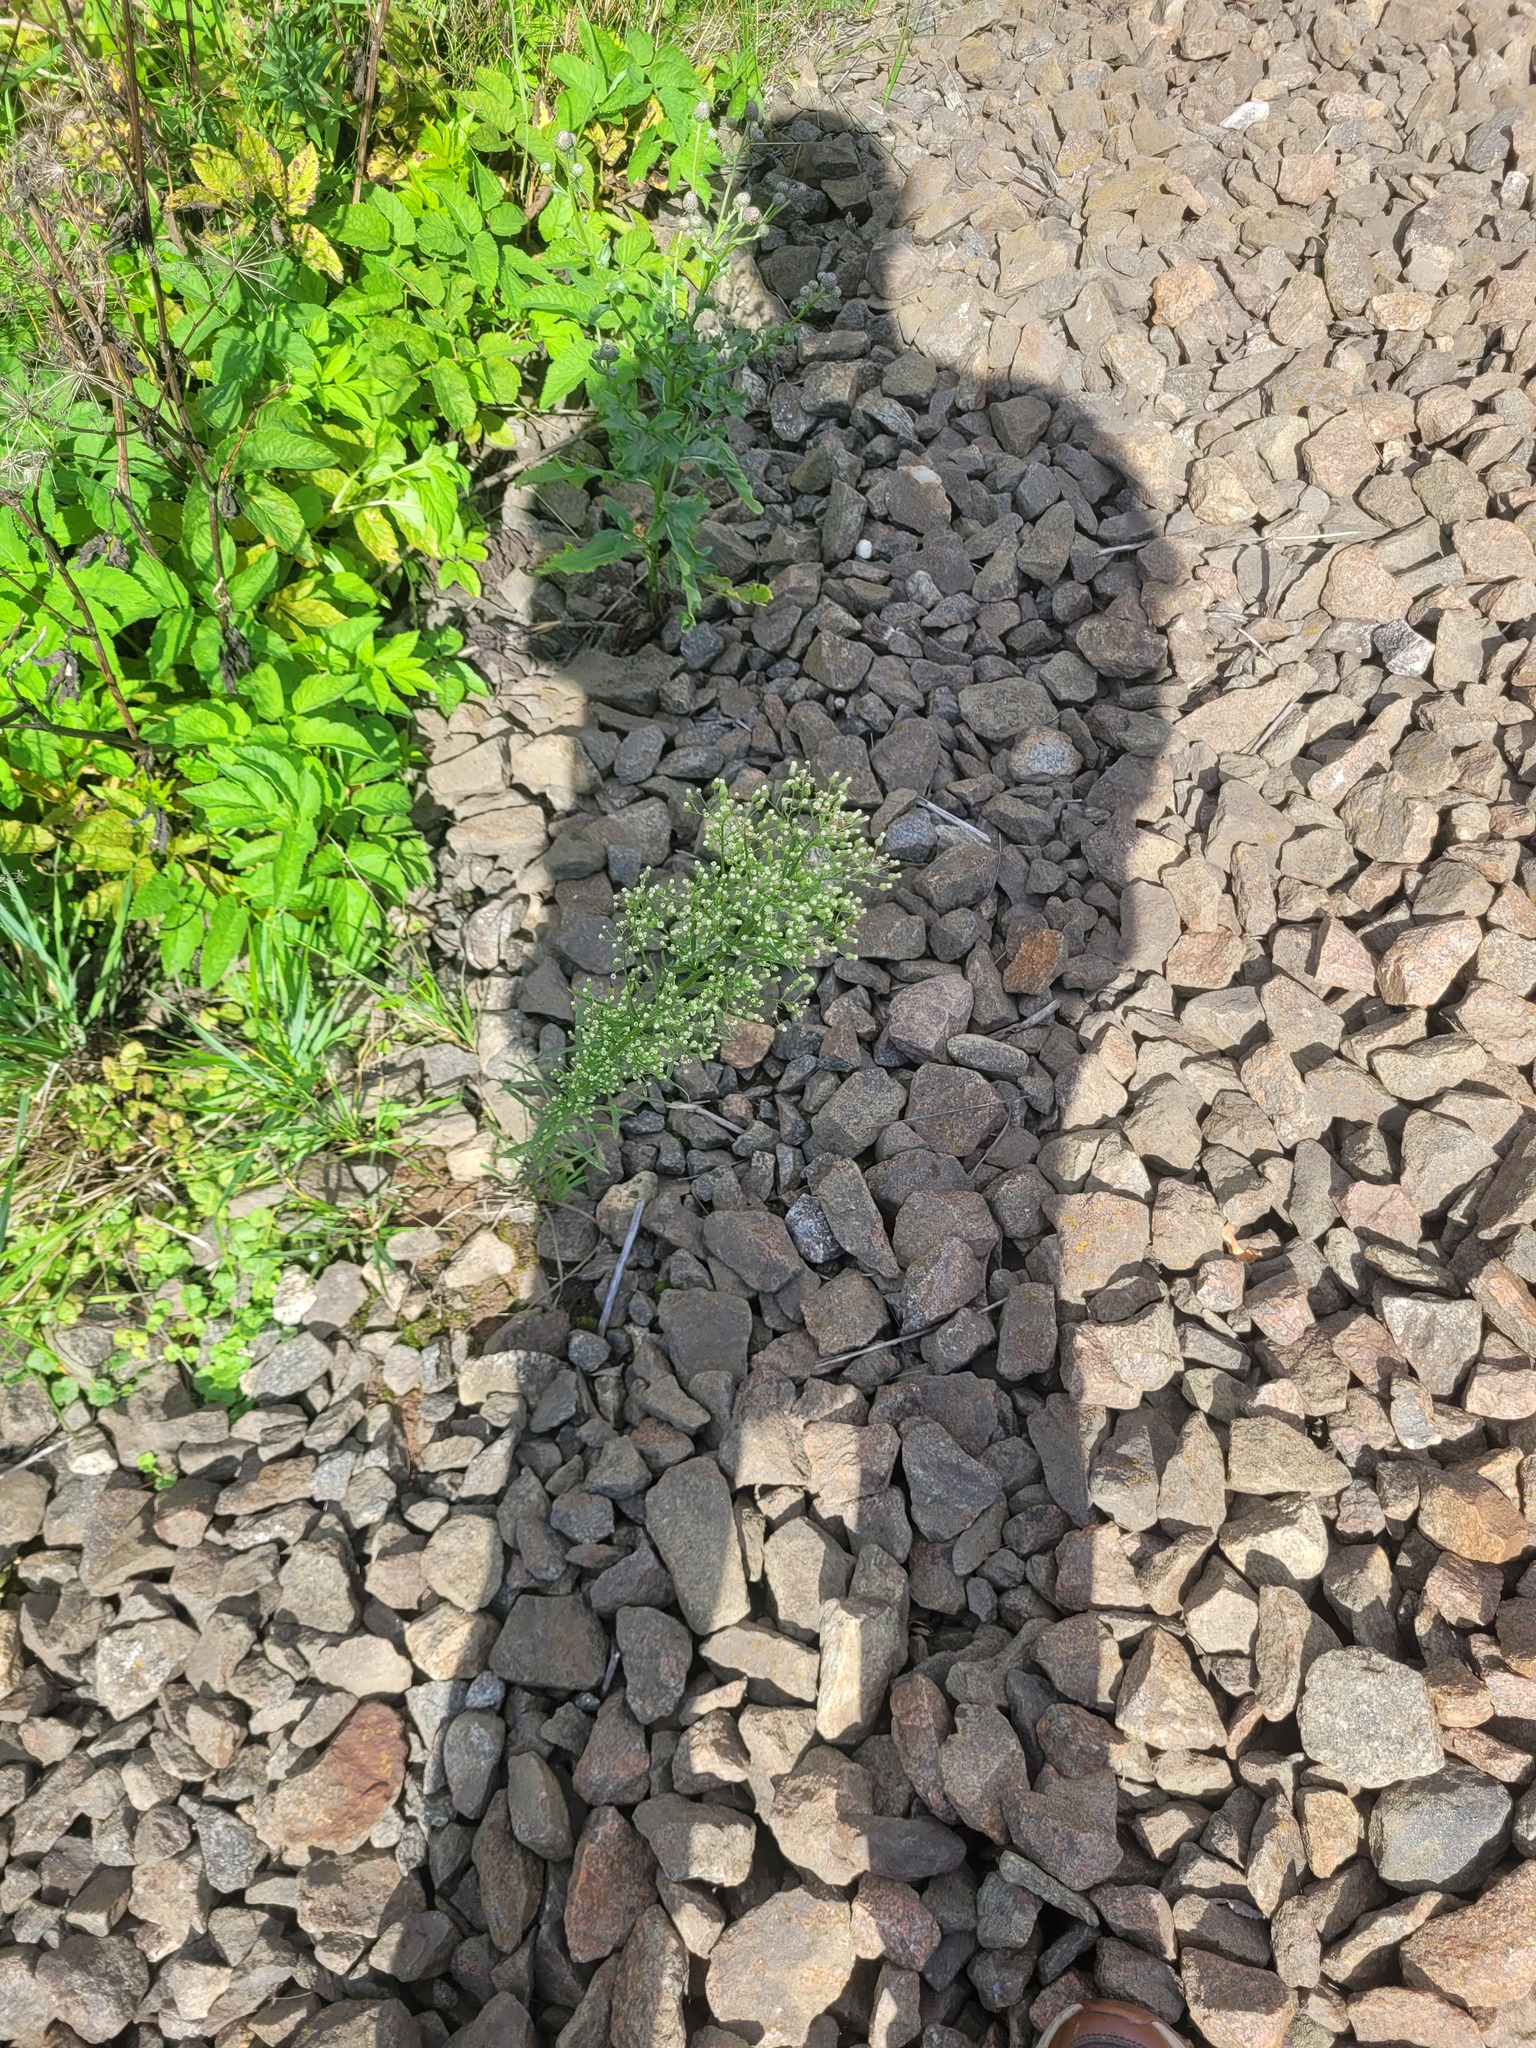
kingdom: Plantae
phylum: Tracheophyta
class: Magnoliopsida
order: Asterales
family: Asteraceae
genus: Erigeron
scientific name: Erigeron canadensis
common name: Canadian fleabane
